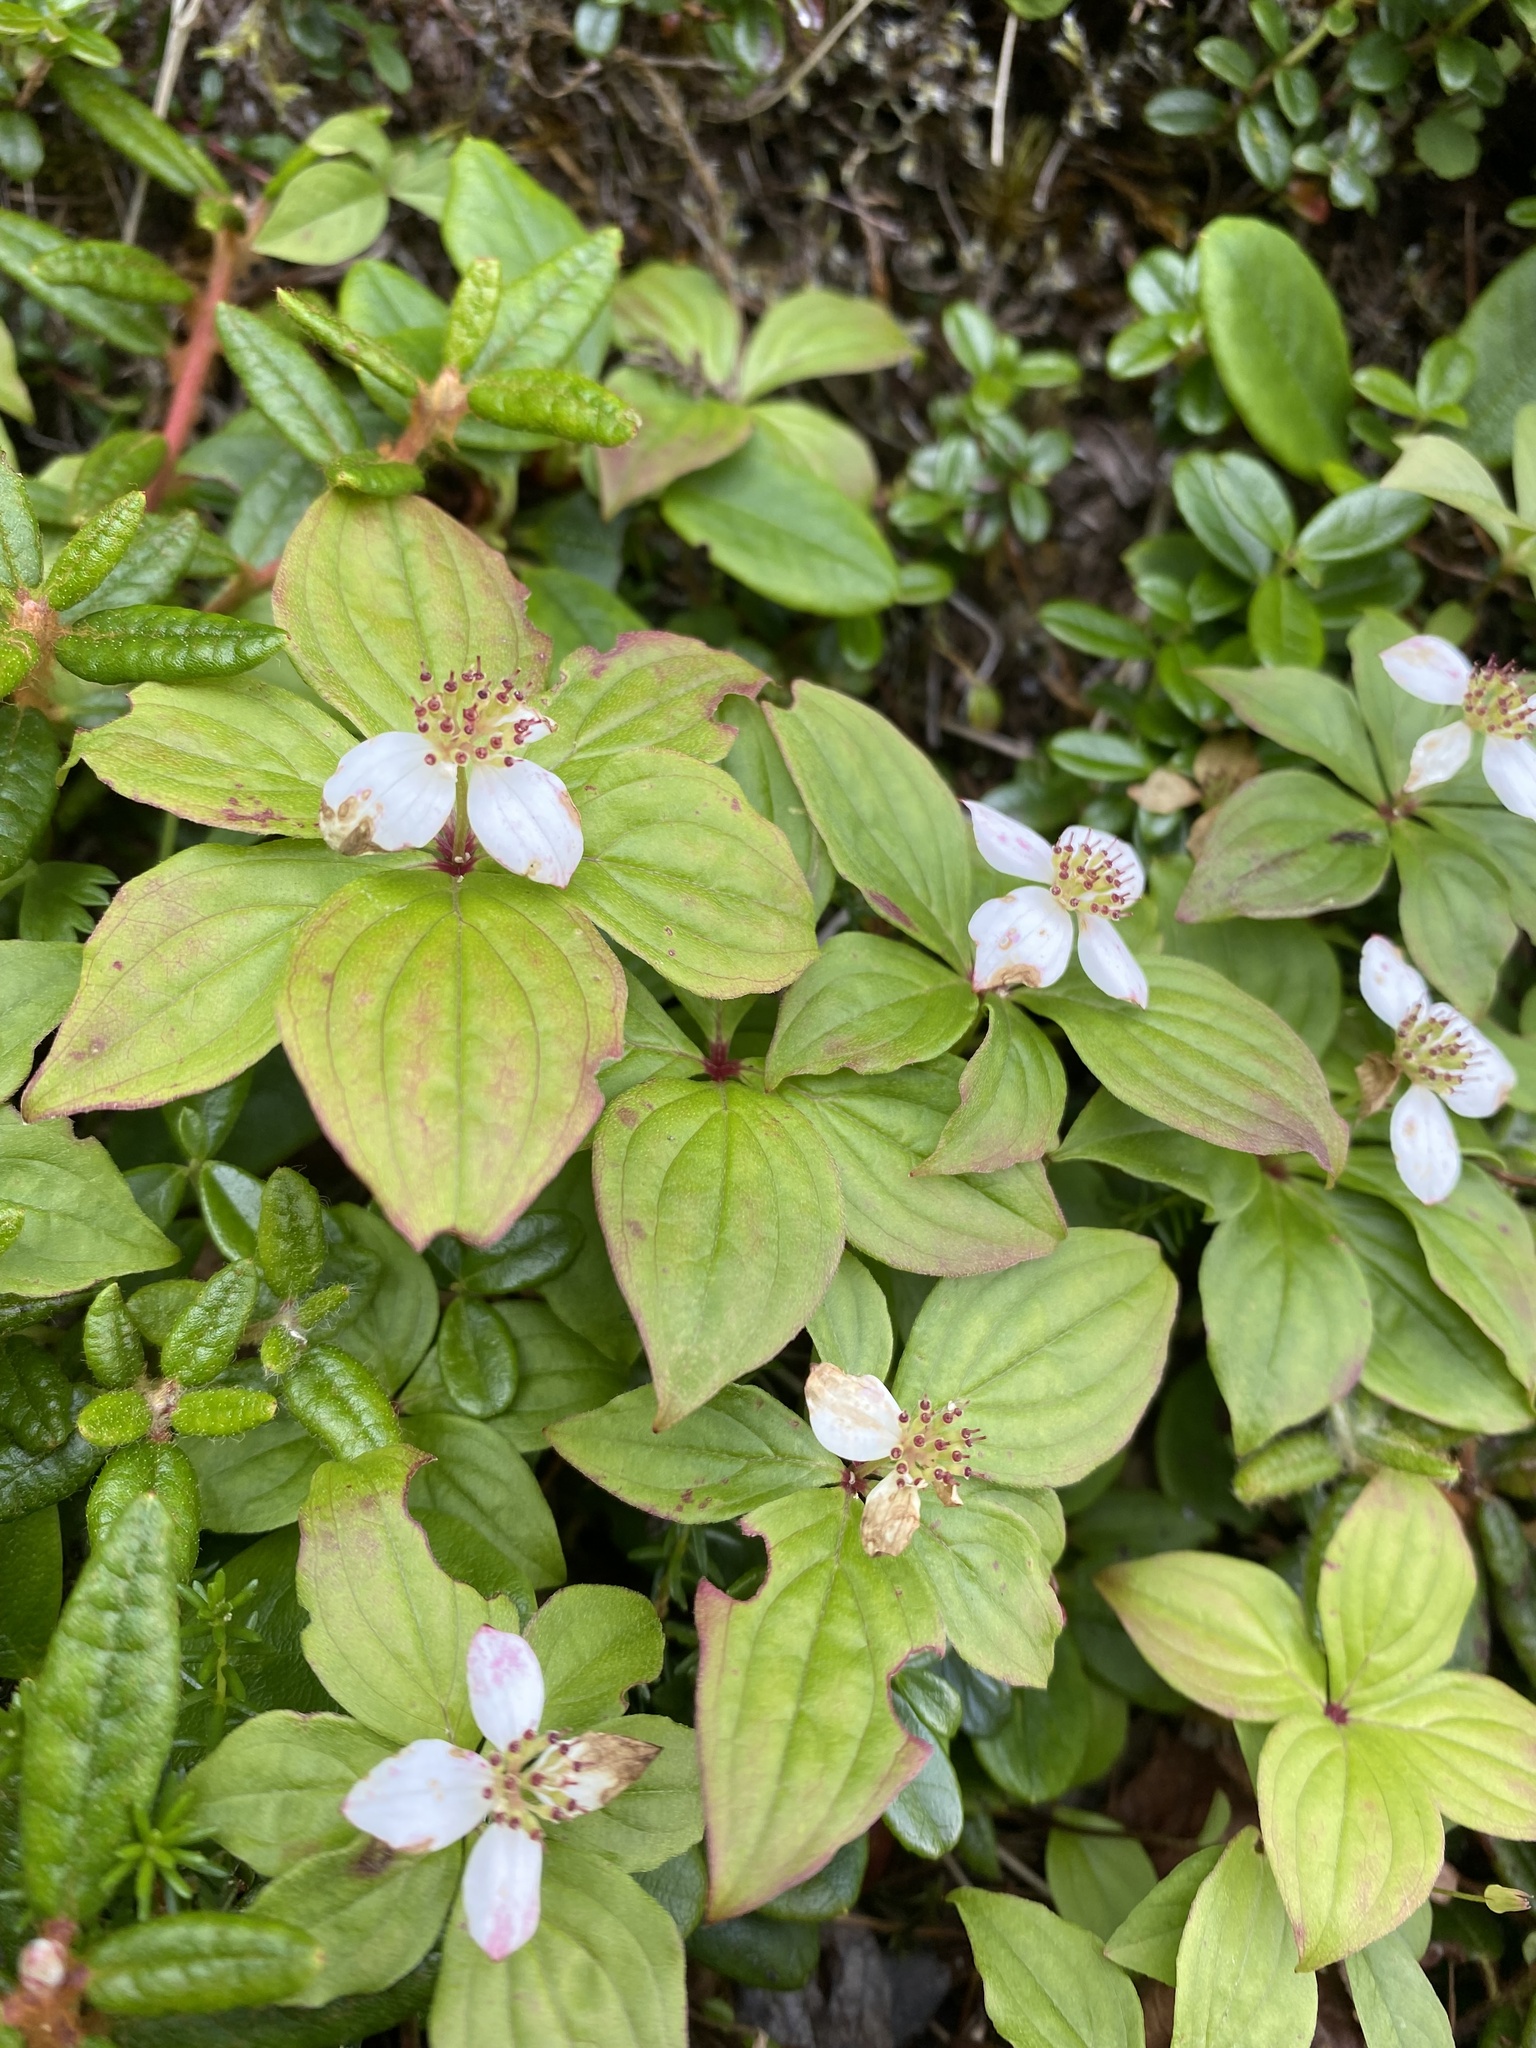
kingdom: Plantae
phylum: Tracheophyta
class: Magnoliopsida
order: Cornales
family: Cornaceae
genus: Cornus
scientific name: Cornus canadensis
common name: Creeping dogwood
